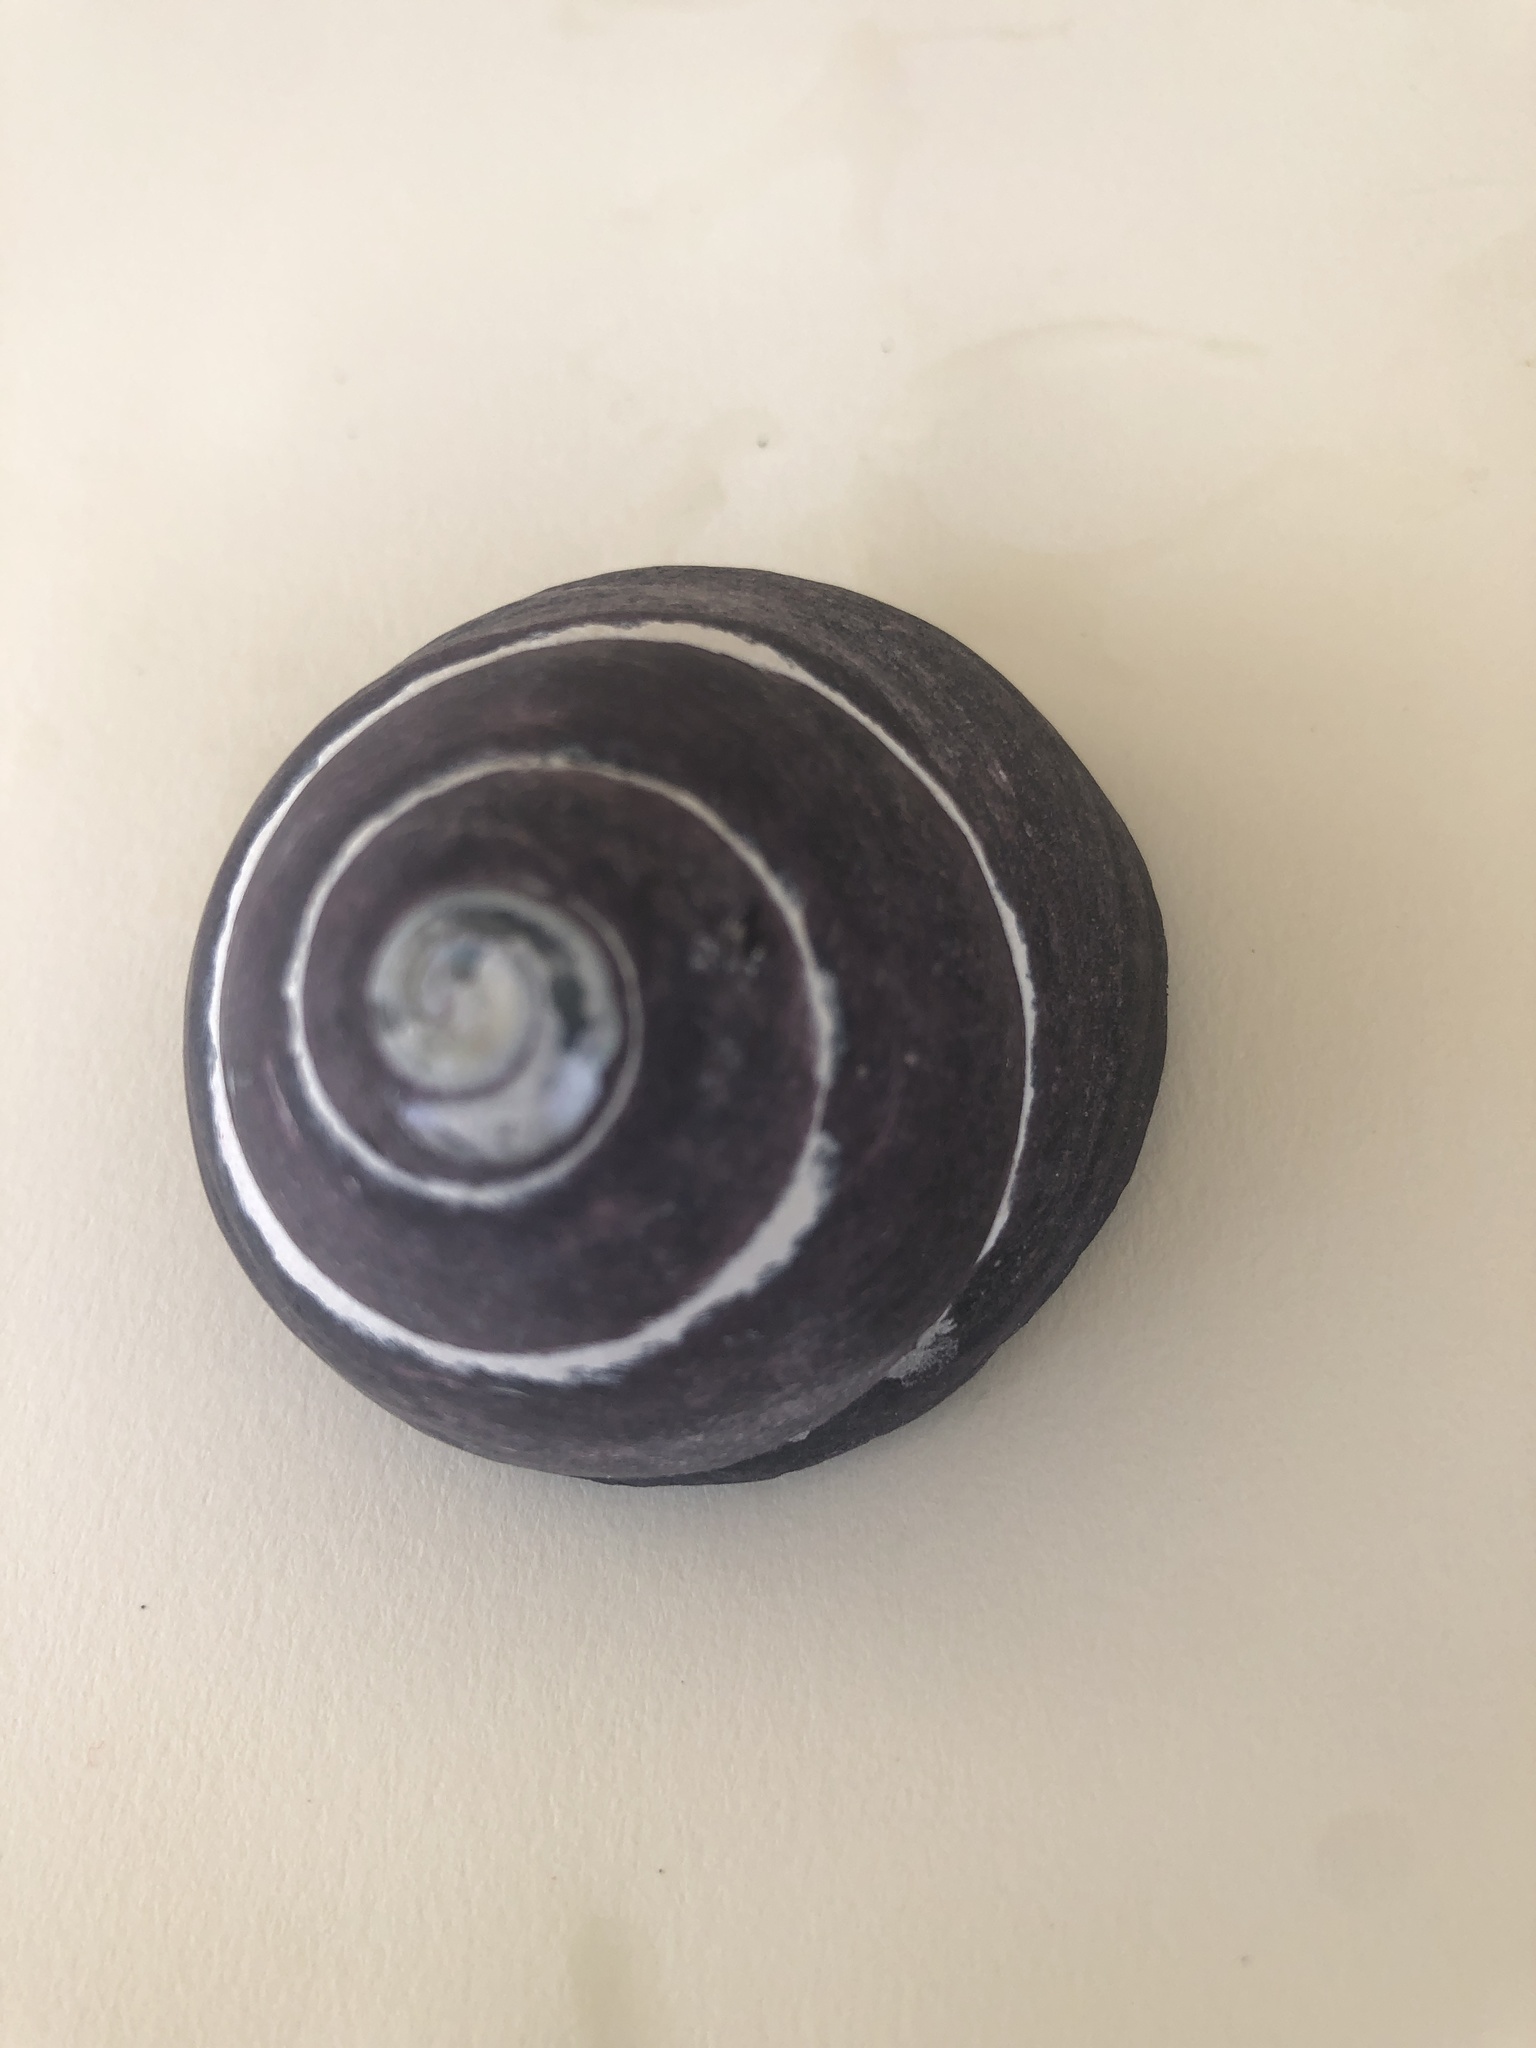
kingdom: Animalia
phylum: Mollusca
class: Gastropoda
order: Trochida
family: Tegulidae
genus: Tegula
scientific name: Tegula atra
